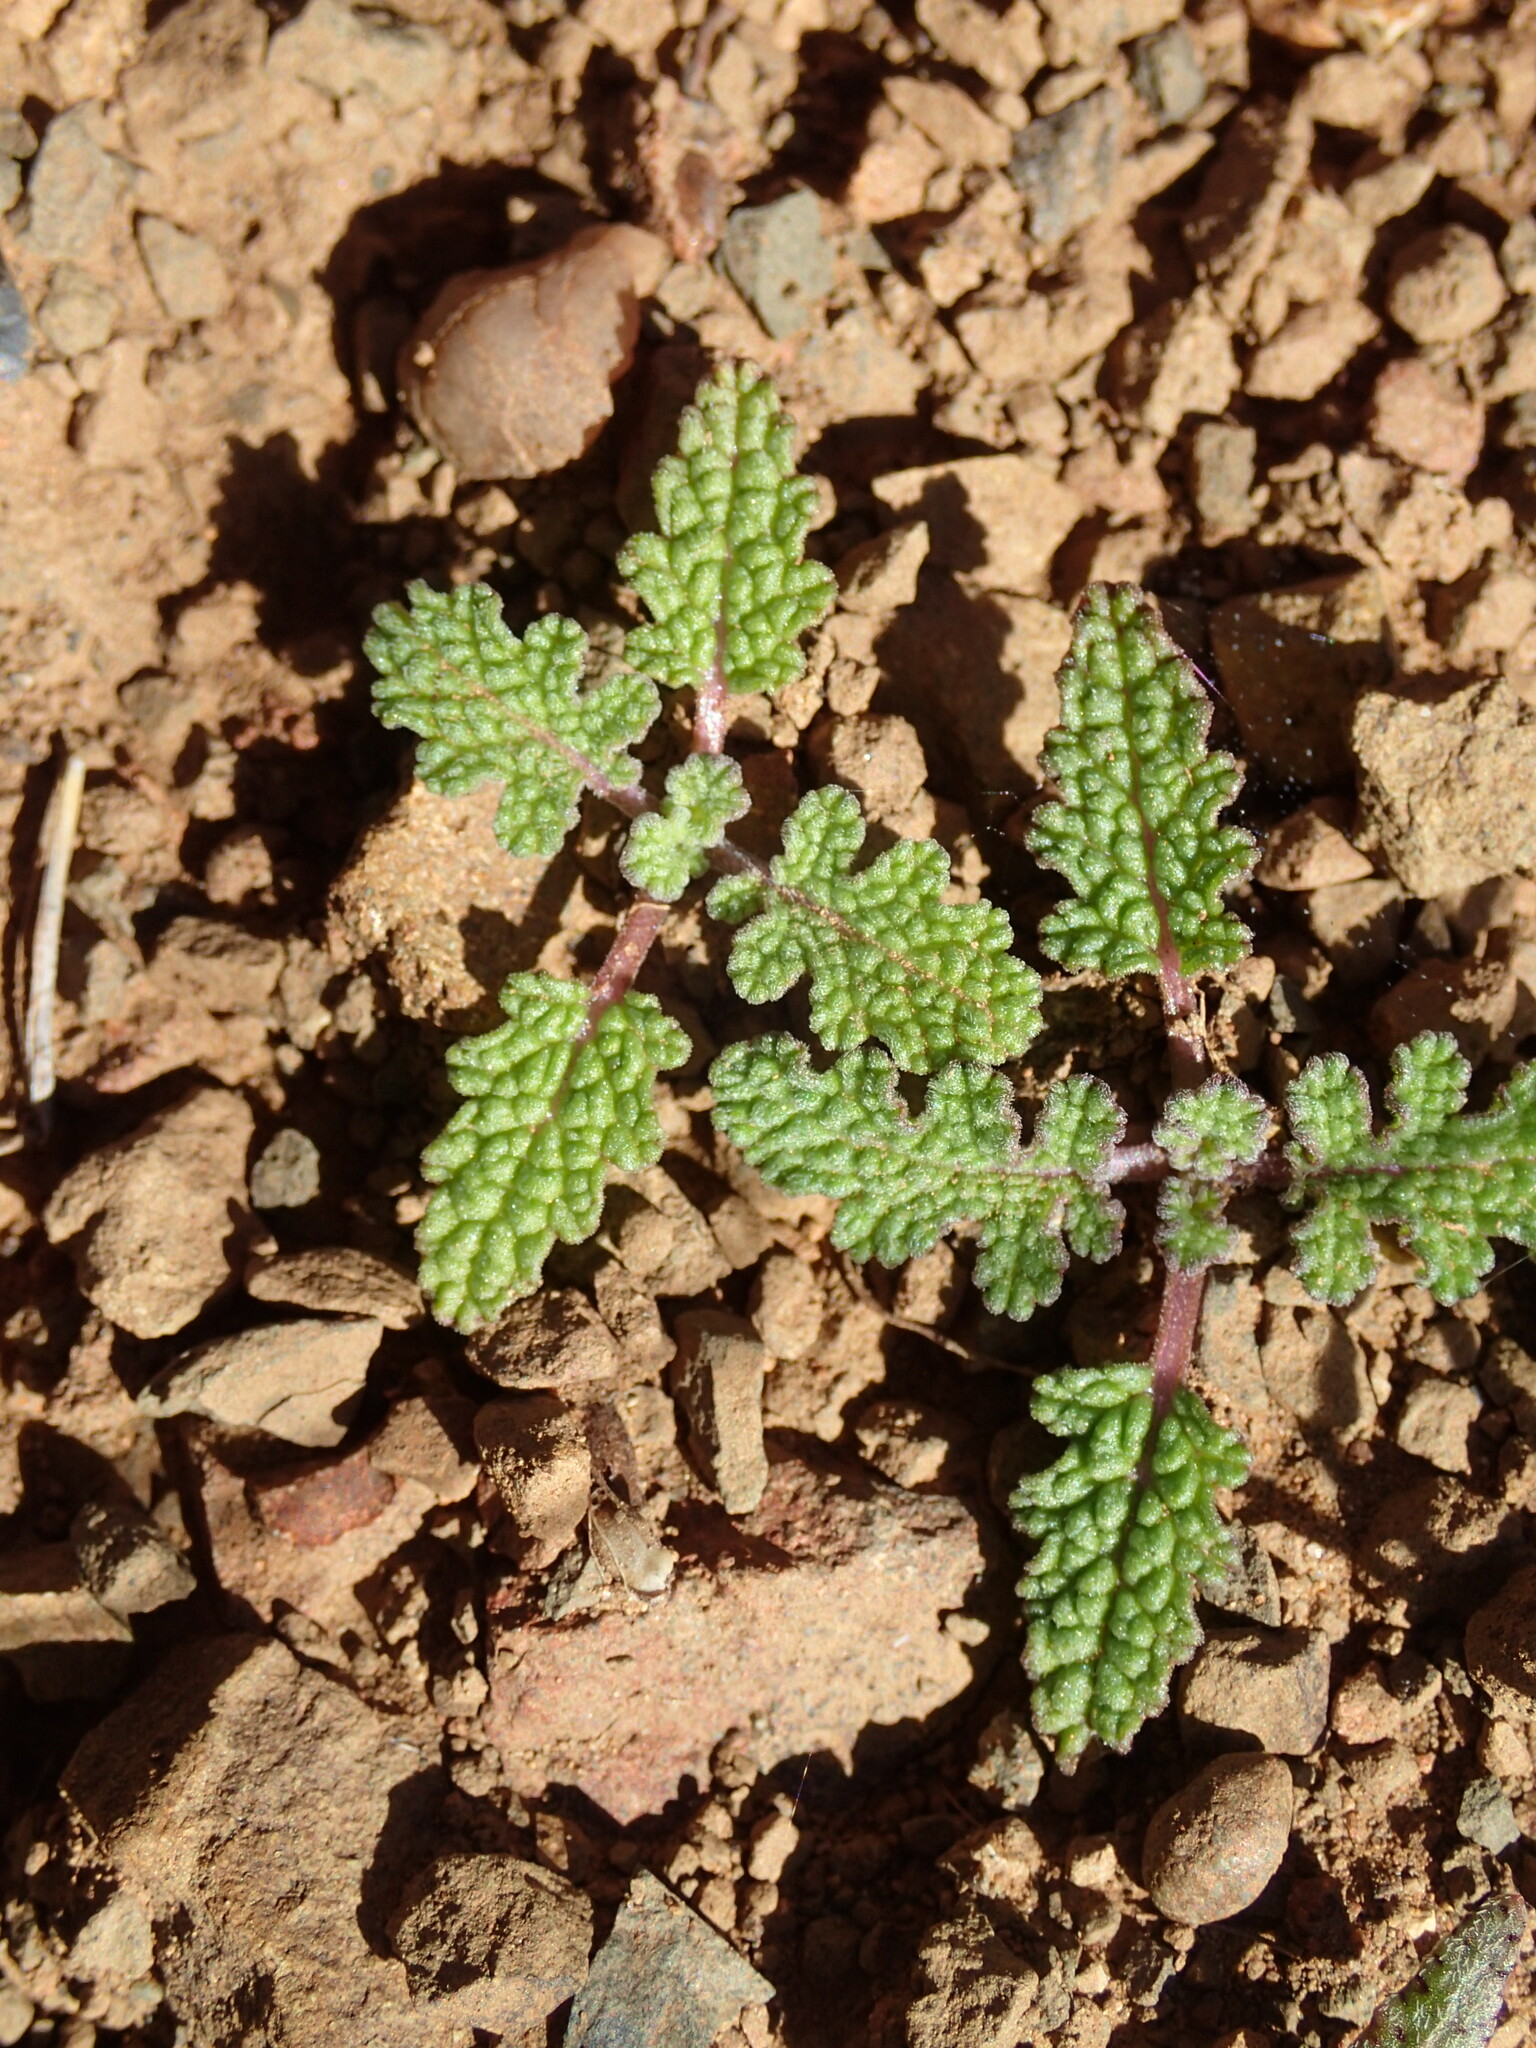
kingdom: Plantae
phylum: Tracheophyta
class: Magnoliopsida
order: Lamiales
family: Lamiaceae
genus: Salvia
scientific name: Salvia columbariae
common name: Chia
